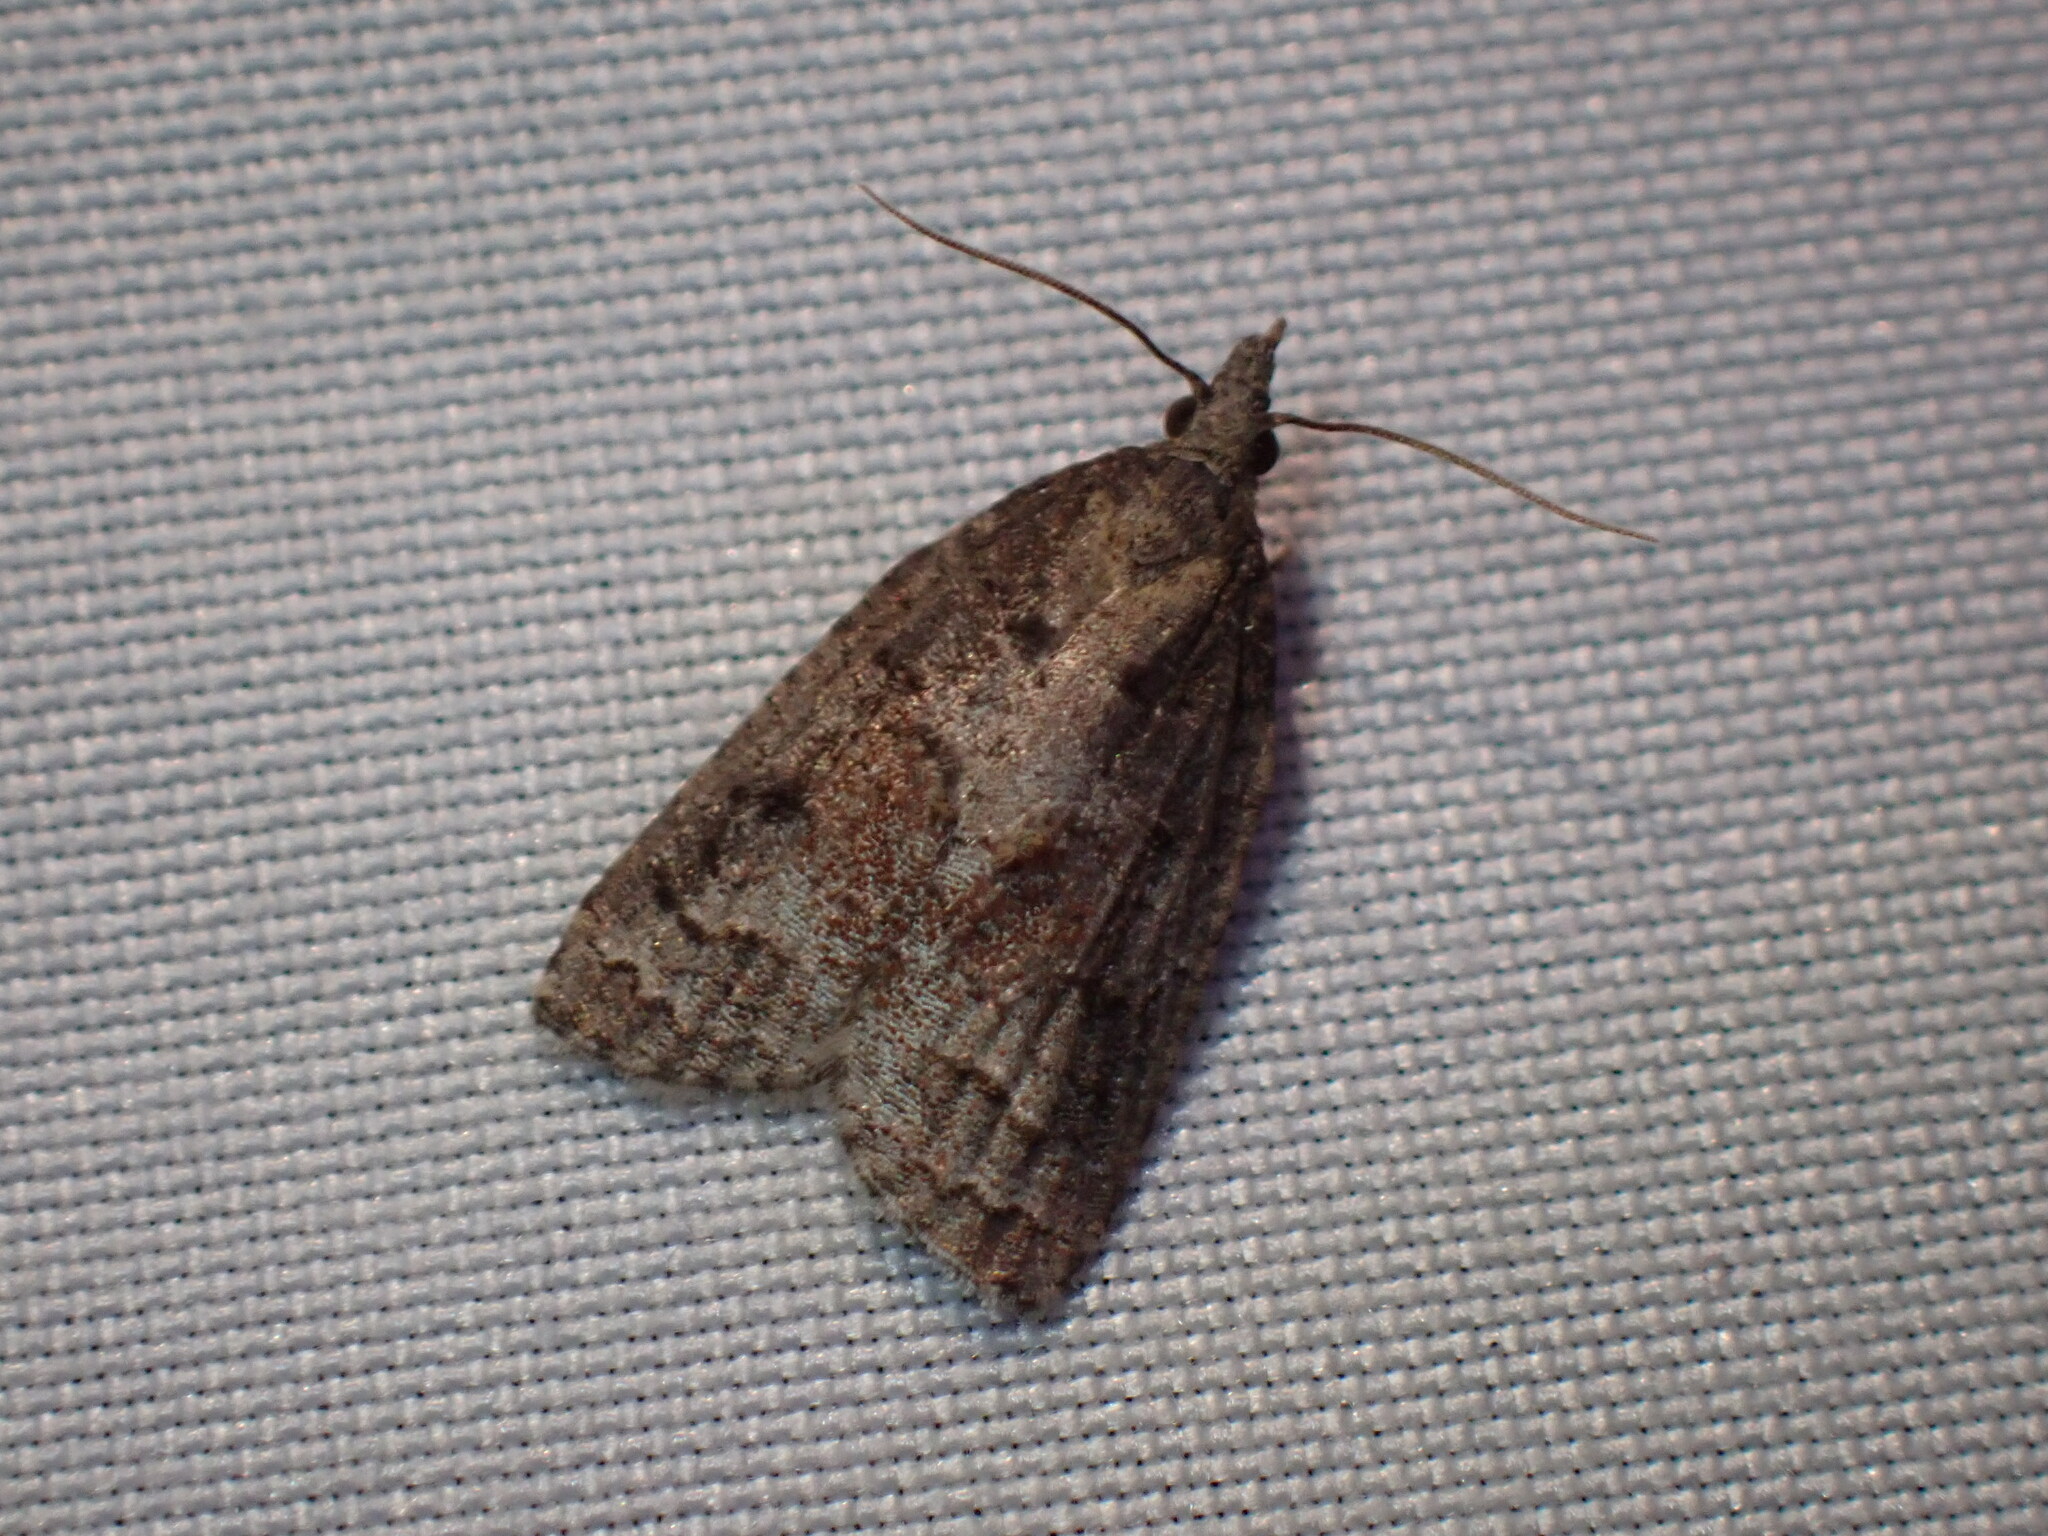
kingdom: Animalia
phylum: Arthropoda
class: Insecta
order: Lepidoptera
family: Tortricidae
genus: Platynota
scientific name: Platynota idaeusalis
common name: Tufted apple bud moth
